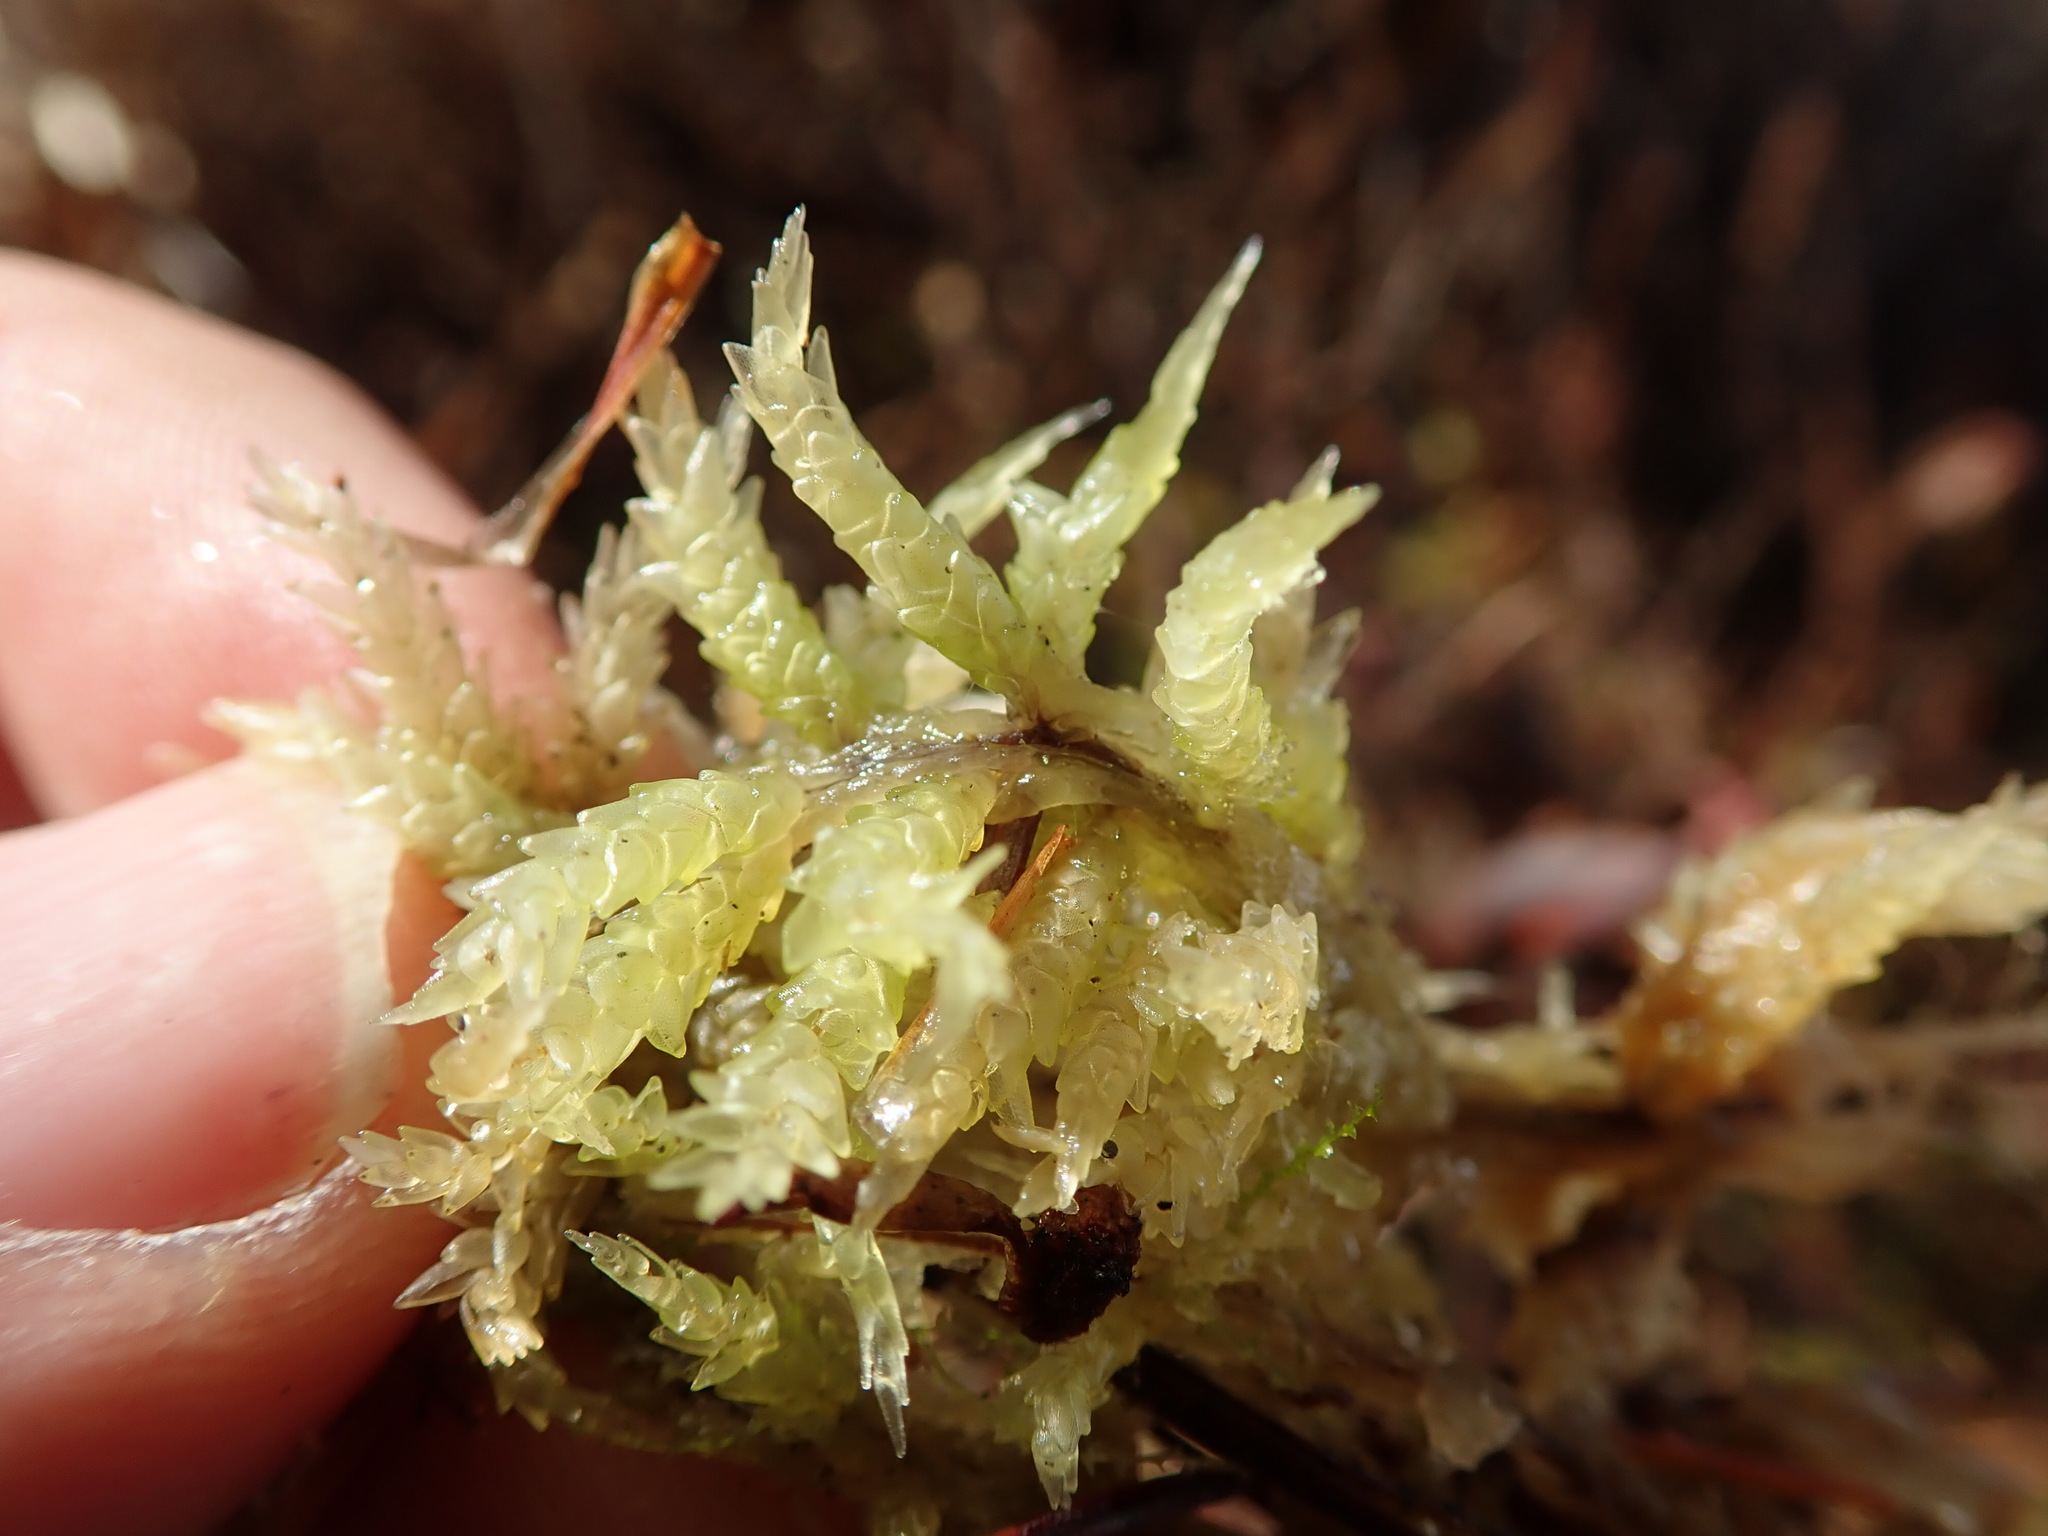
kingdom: Plantae
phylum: Bryophyta
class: Sphagnopsida
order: Sphagnales
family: Sphagnaceae
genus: Sphagnum
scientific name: Sphagnum papillosum
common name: Papillose peat moss
